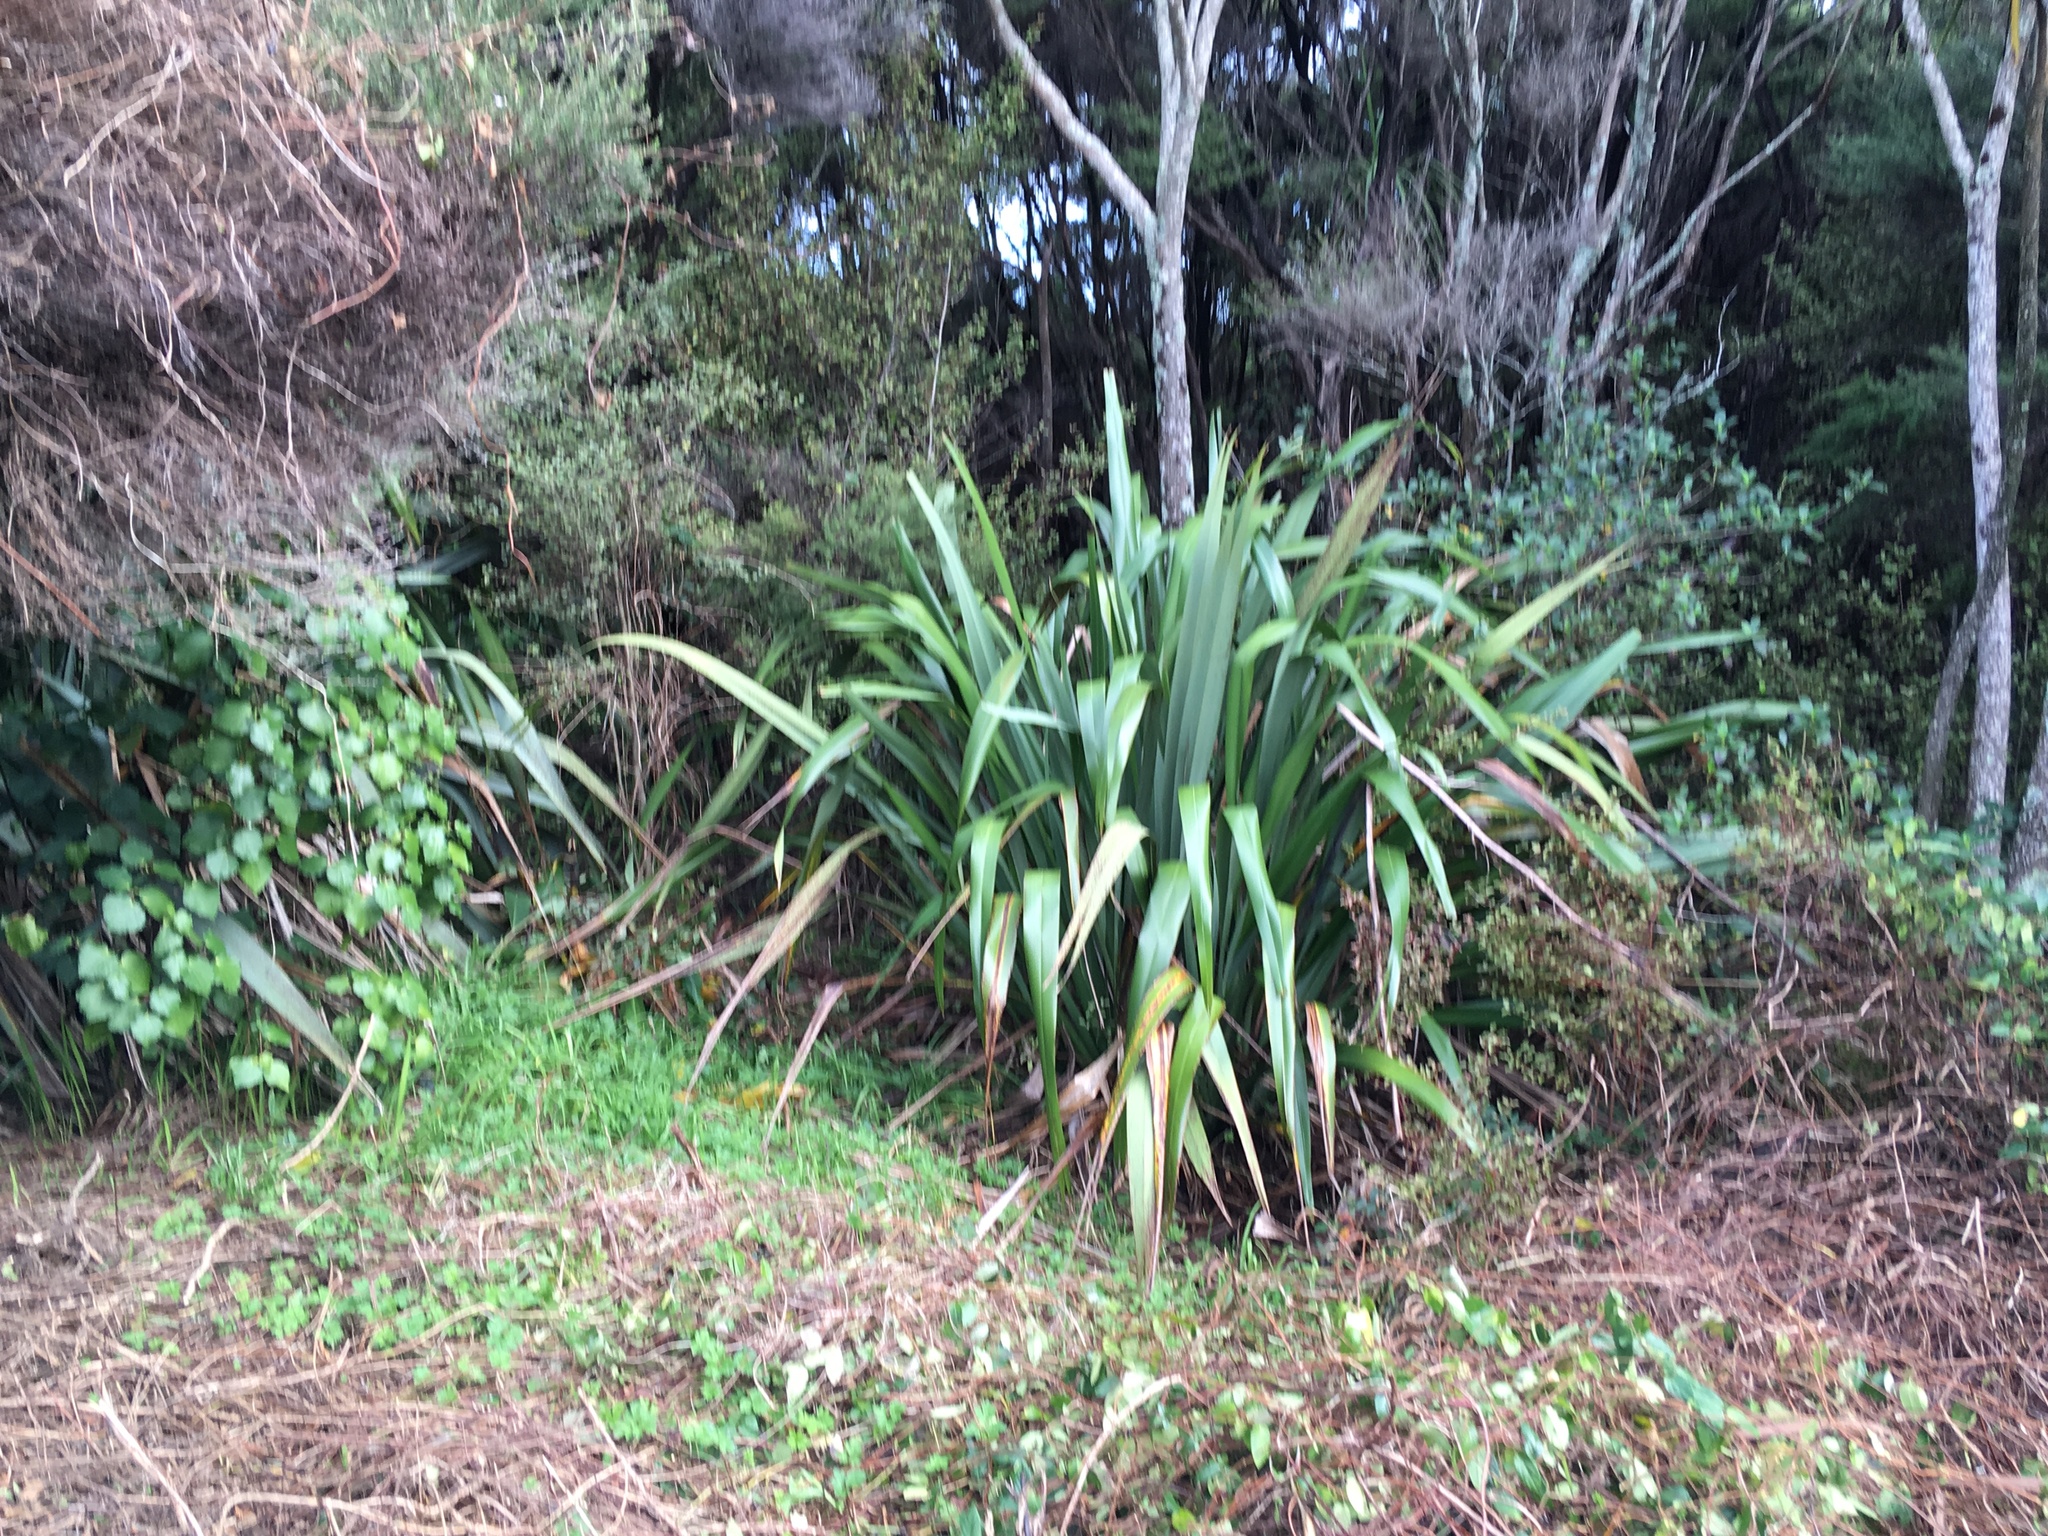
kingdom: Plantae
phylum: Tracheophyta
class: Magnoliopsida
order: Piperales
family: Piperaceae
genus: Macropiper
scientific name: Macropiper excelsum
